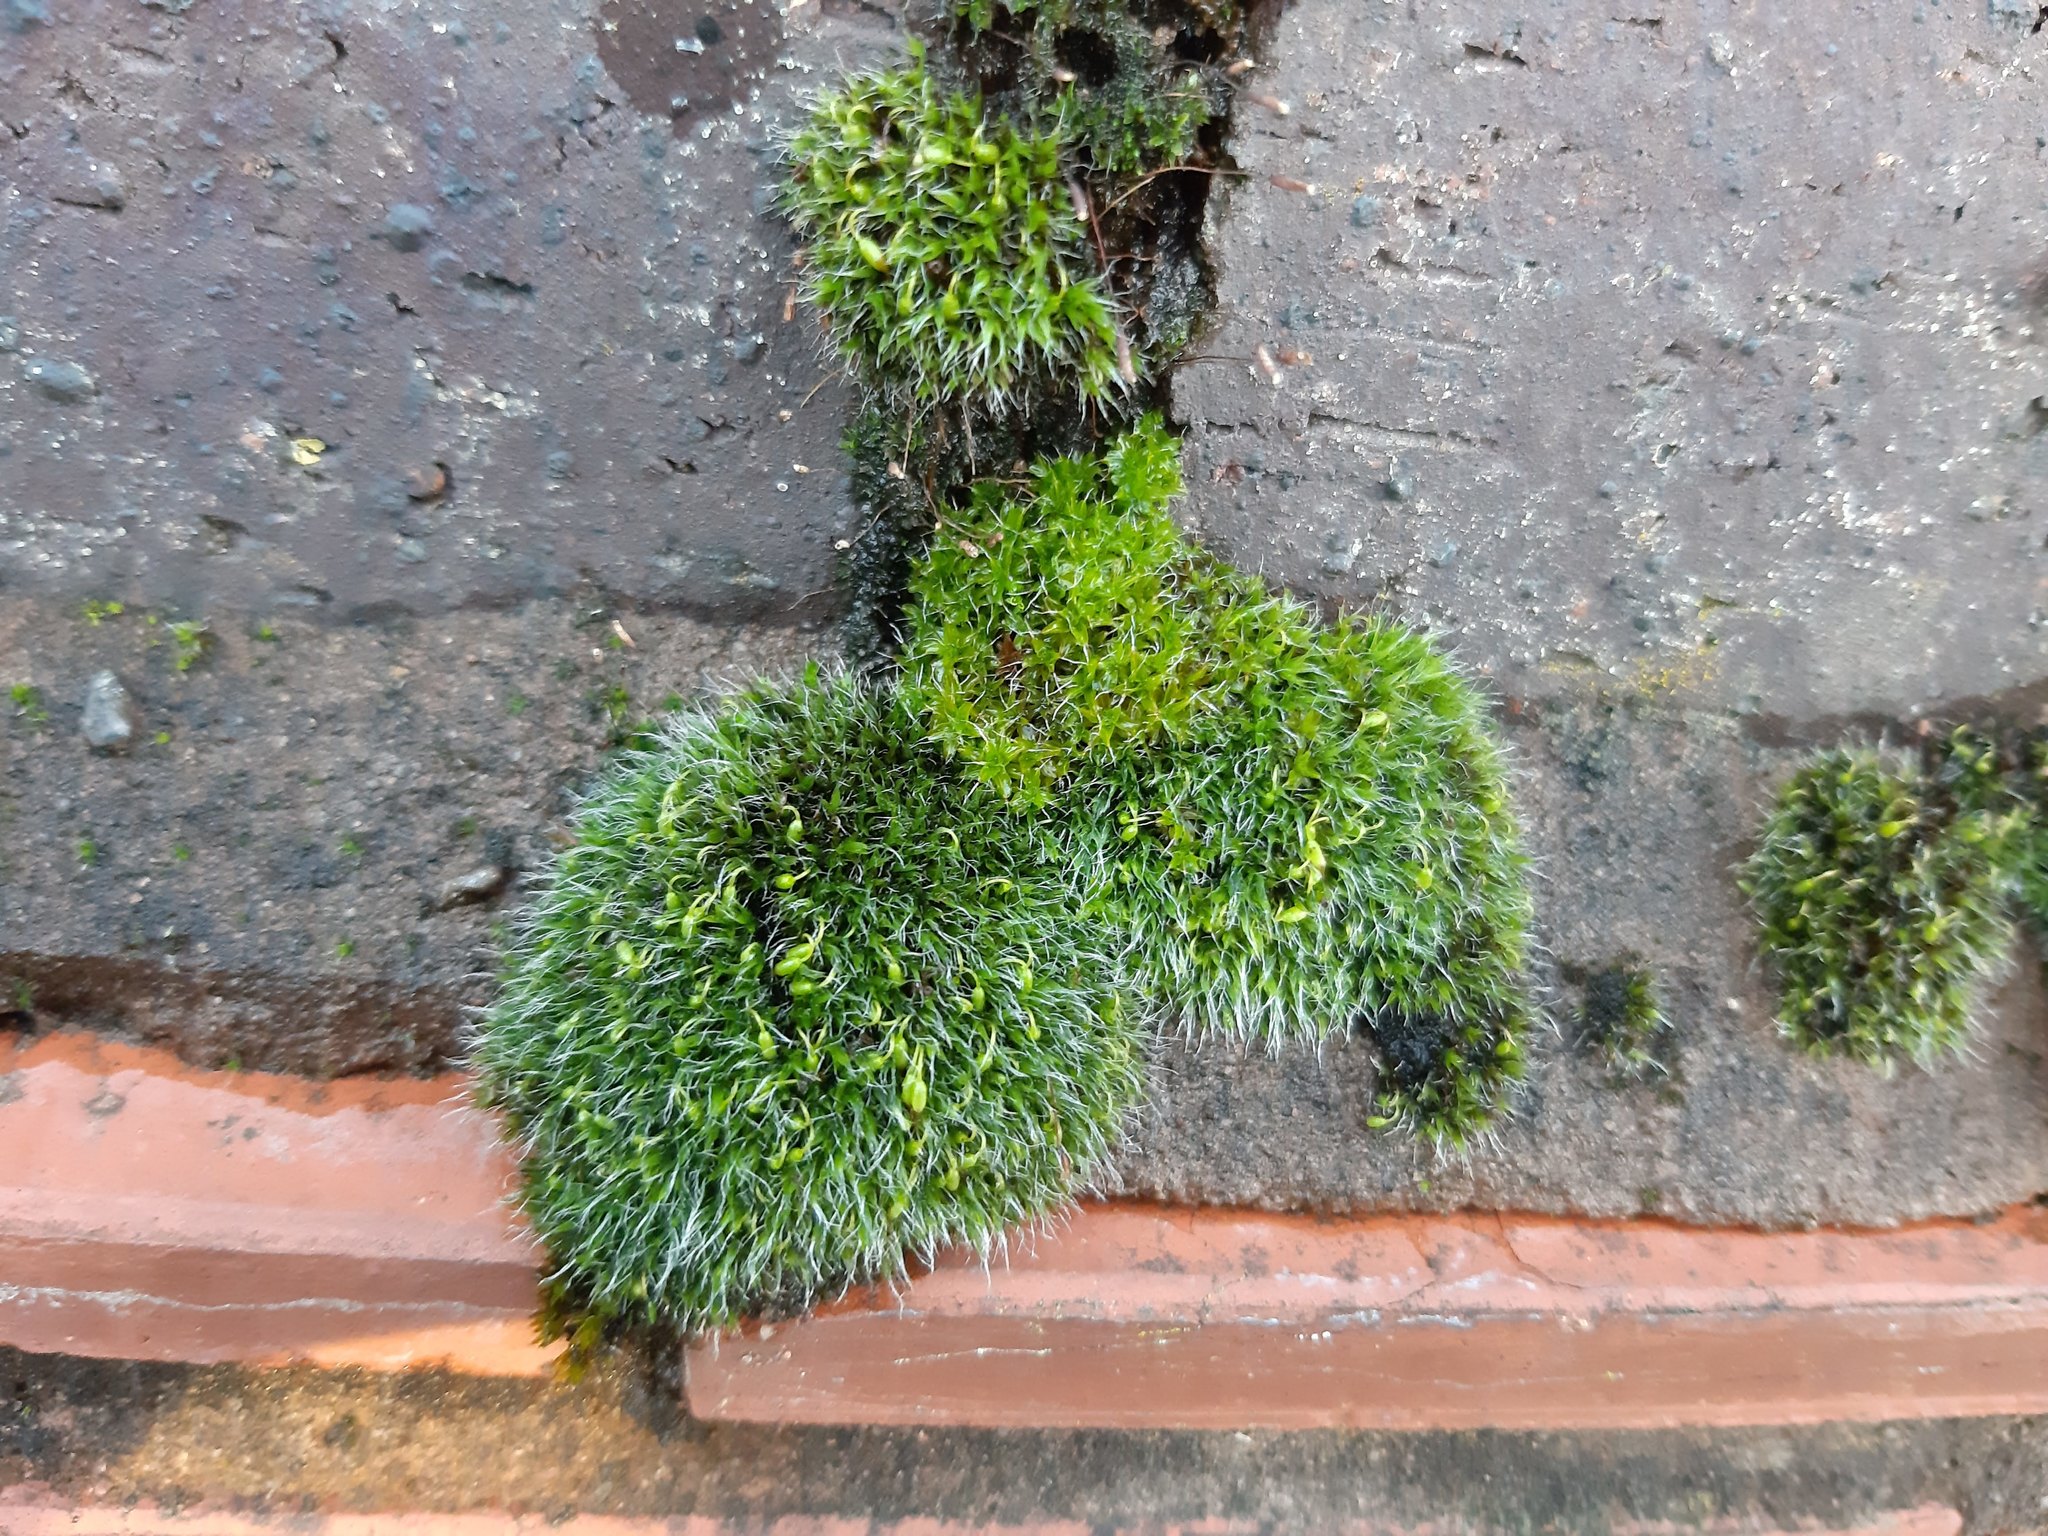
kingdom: Plantae
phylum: Bryophyta
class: Bryopsida
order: Grimmiales
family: Grimmiaceae
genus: Grimmia
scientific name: Grimmia pulvinata
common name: Grey-cushioned grimmia
